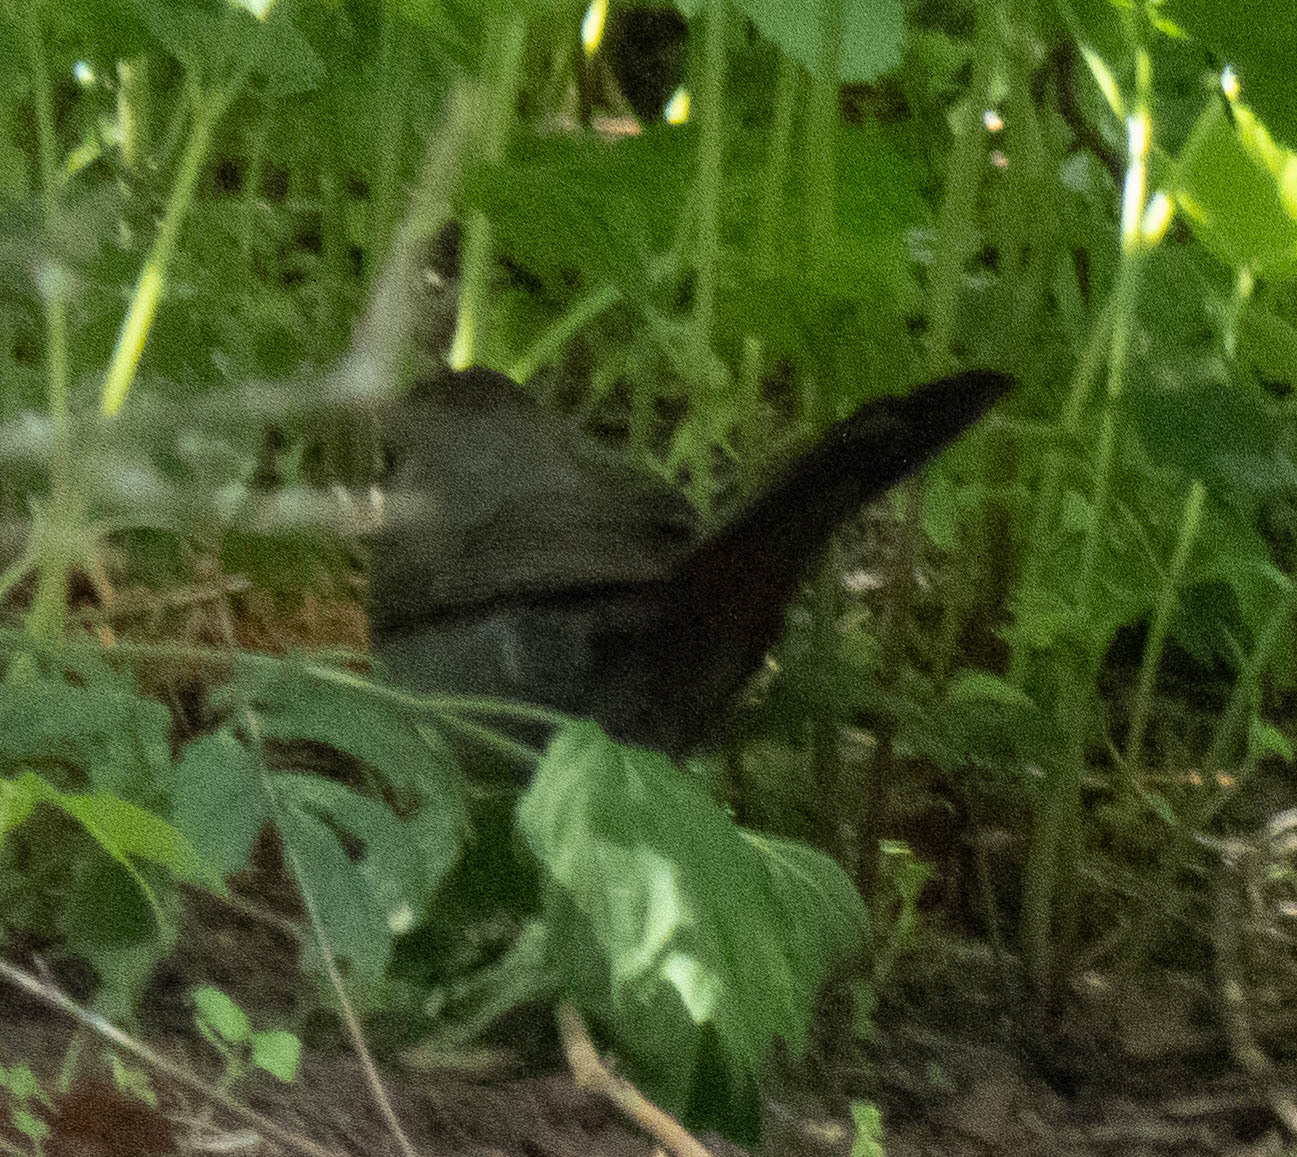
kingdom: Animalia
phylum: Chordata
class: Aves
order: Passeriformes
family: Mimidae
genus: Dumetella
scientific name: Dumetella carolinensis
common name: Gray catbird
